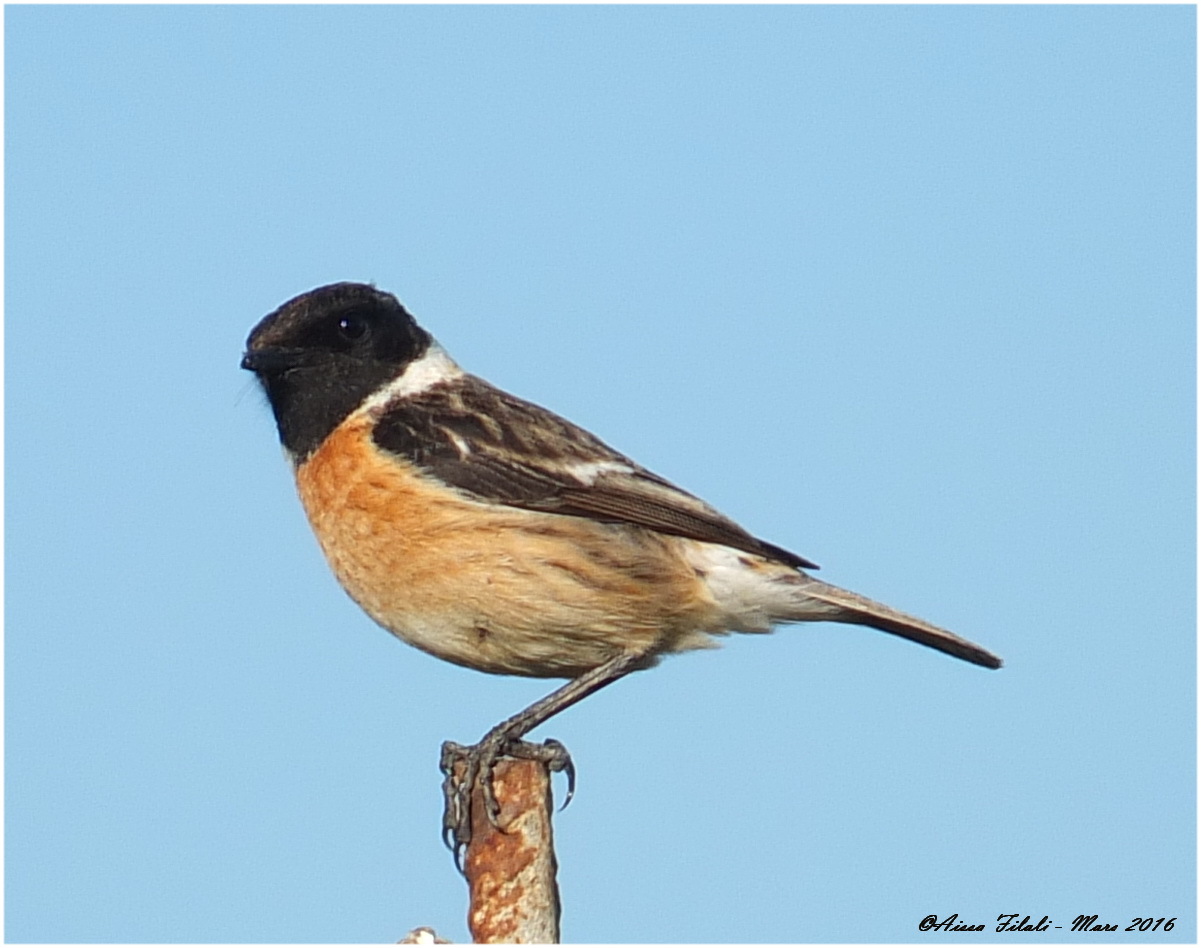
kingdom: Animalia
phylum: Chordata
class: Aves
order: Passeriformes
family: Muscicapidae
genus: Saxicola
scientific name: Saxicola rubicola
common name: European stonechat
